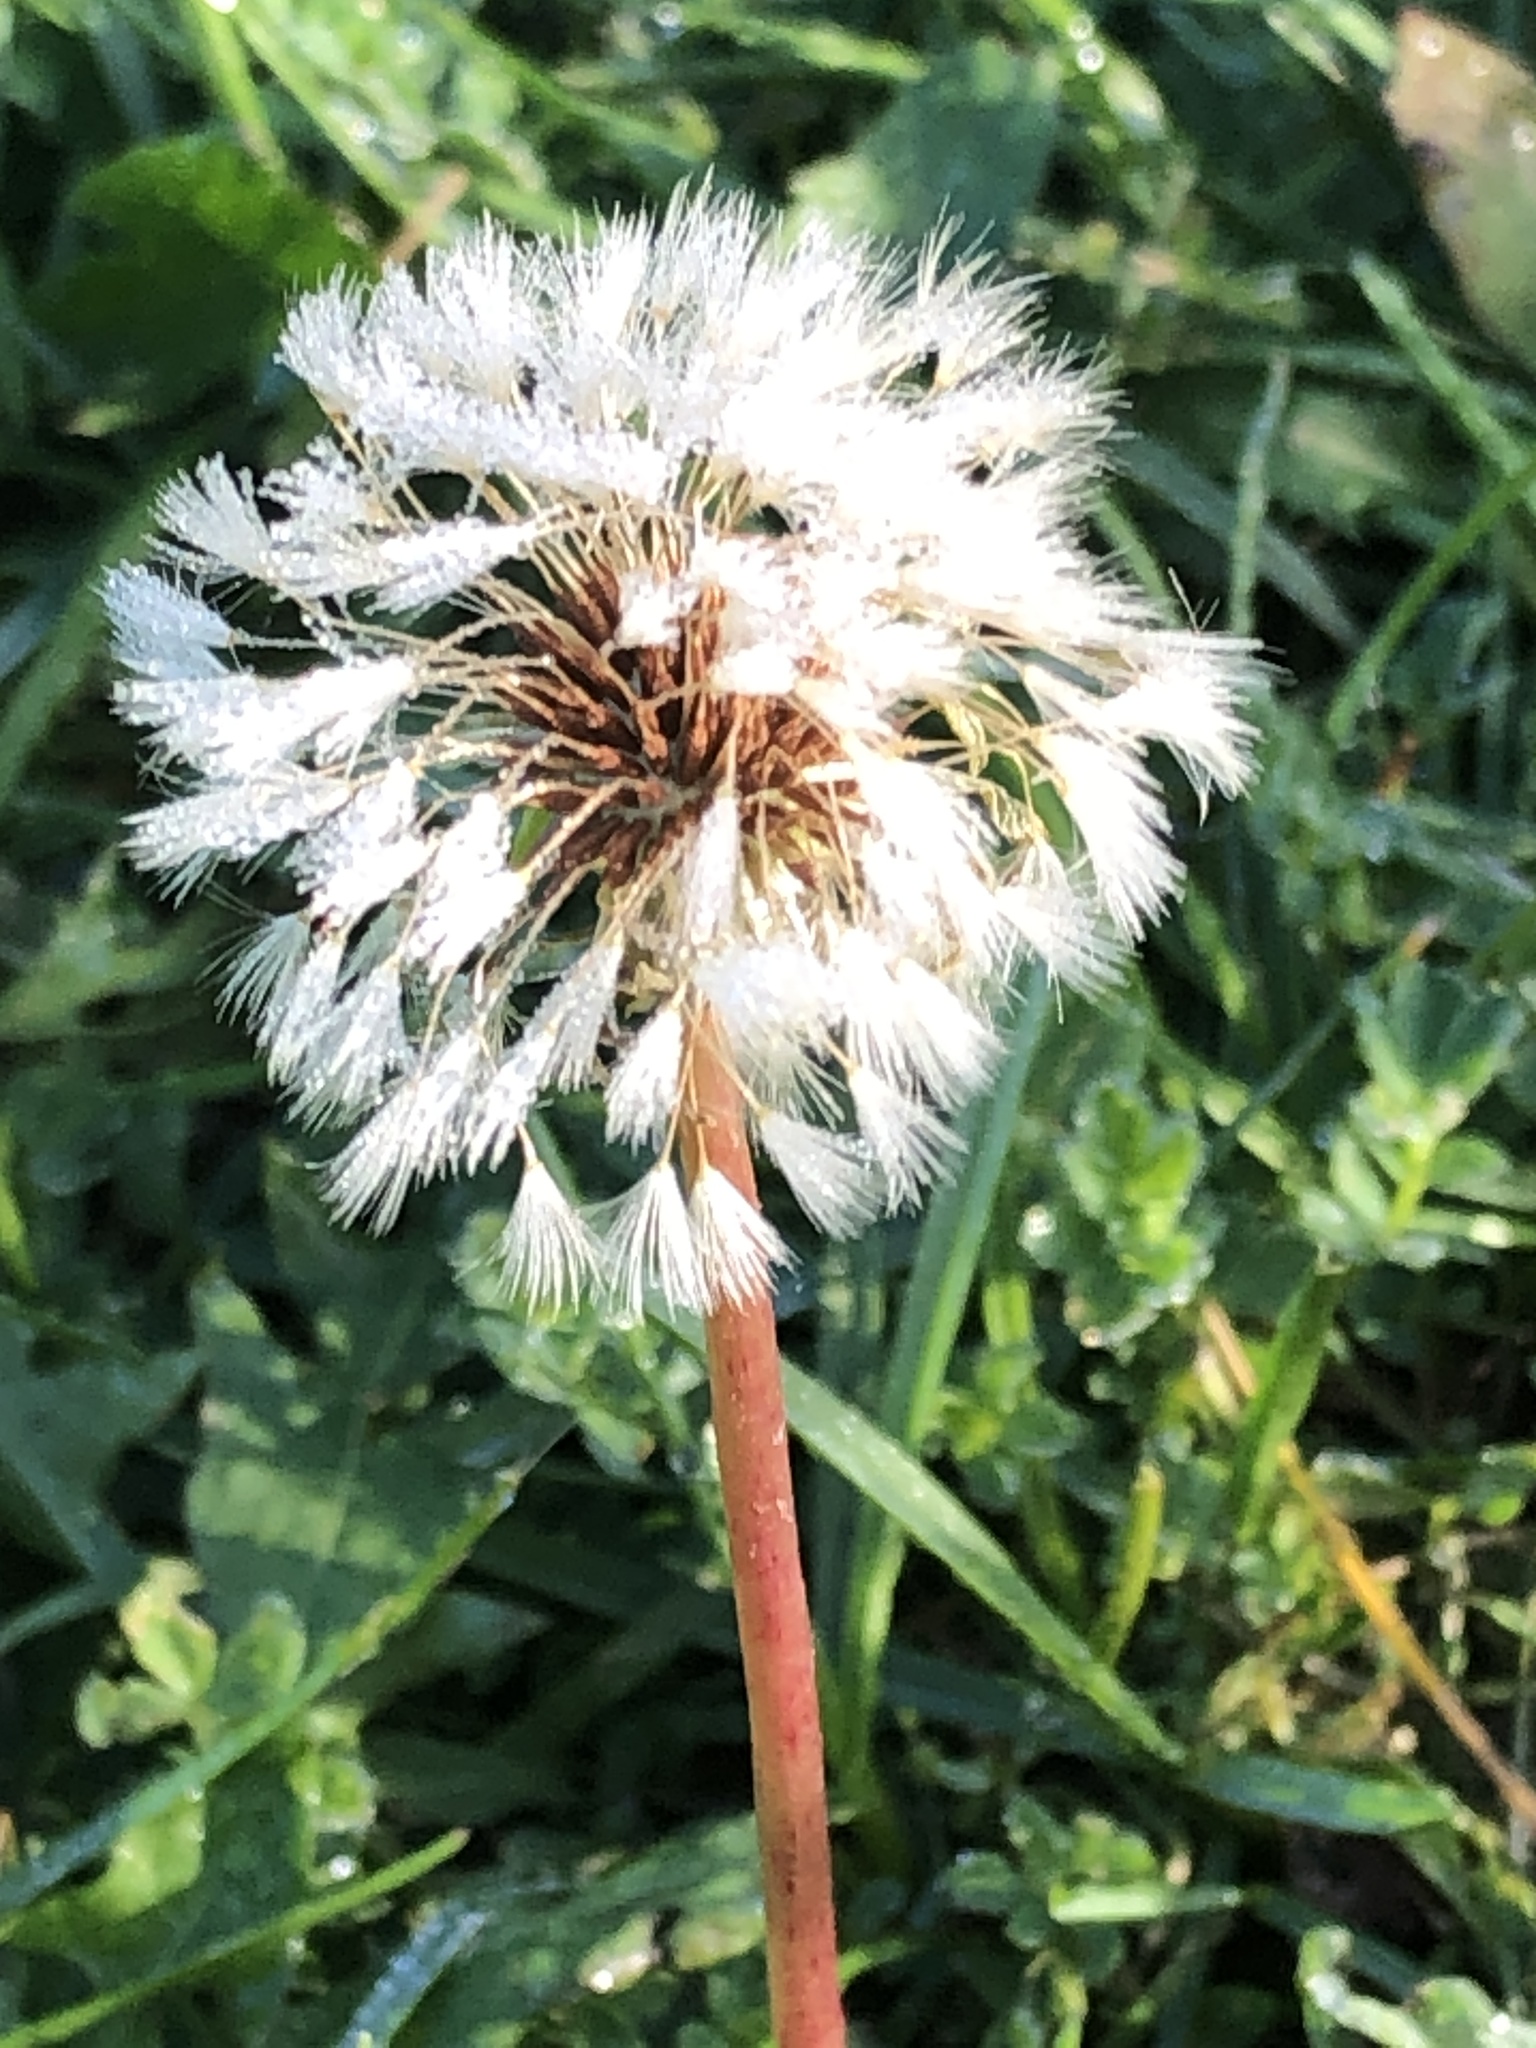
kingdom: Plantae
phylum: Tracheophyta
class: Magnoliopsida
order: Asterales
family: Asteraceae
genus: Taraxacum
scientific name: Taraxacum officinale
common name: Common dandelion
